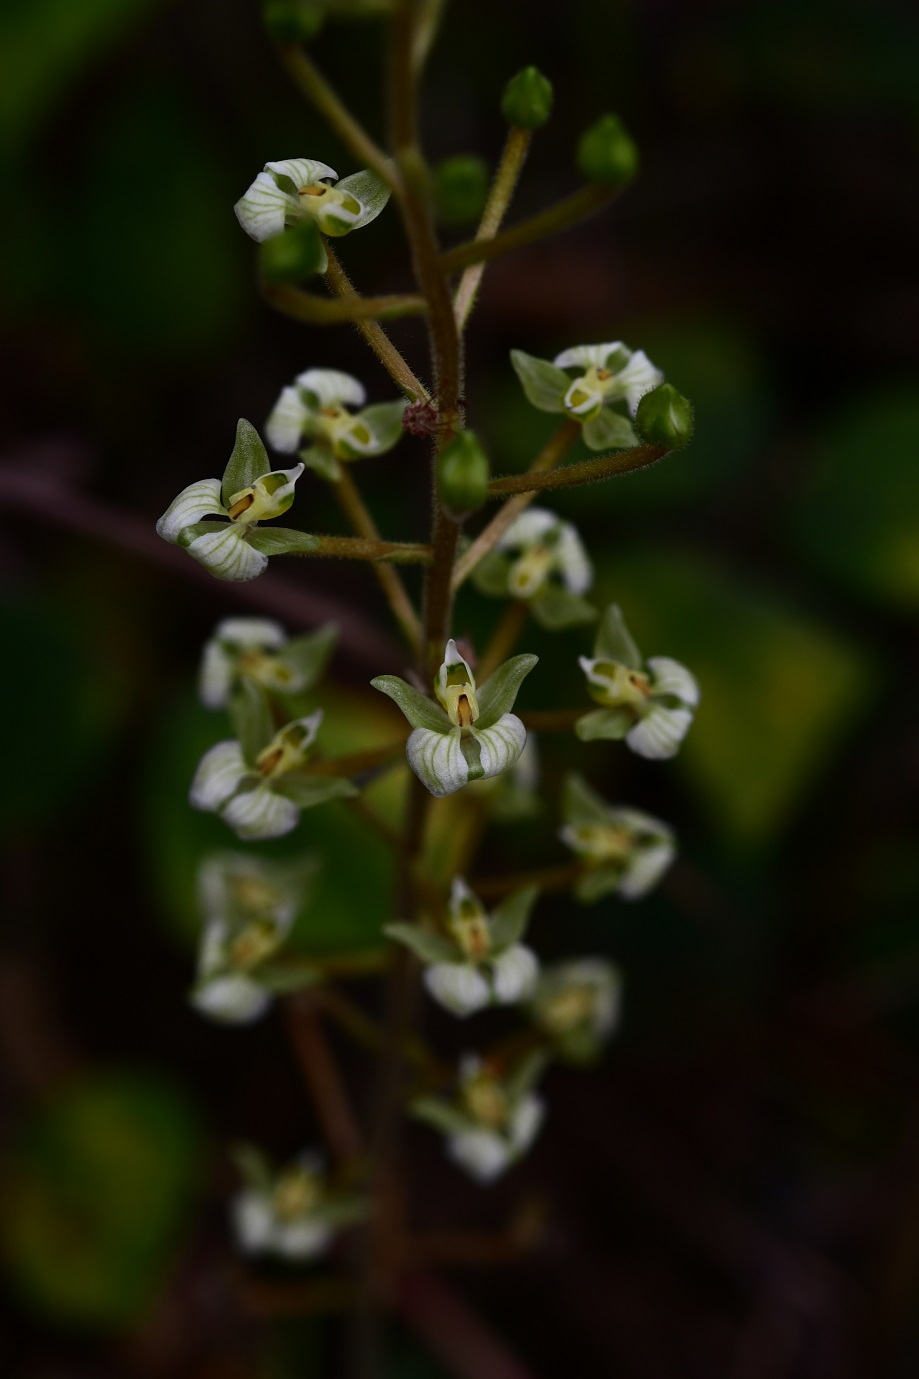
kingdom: Plantae
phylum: Tracheophyta
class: Liliopsida
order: Asparagales
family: Orchidaceae
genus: Ponthieva
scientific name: Ponthieva racemosa
